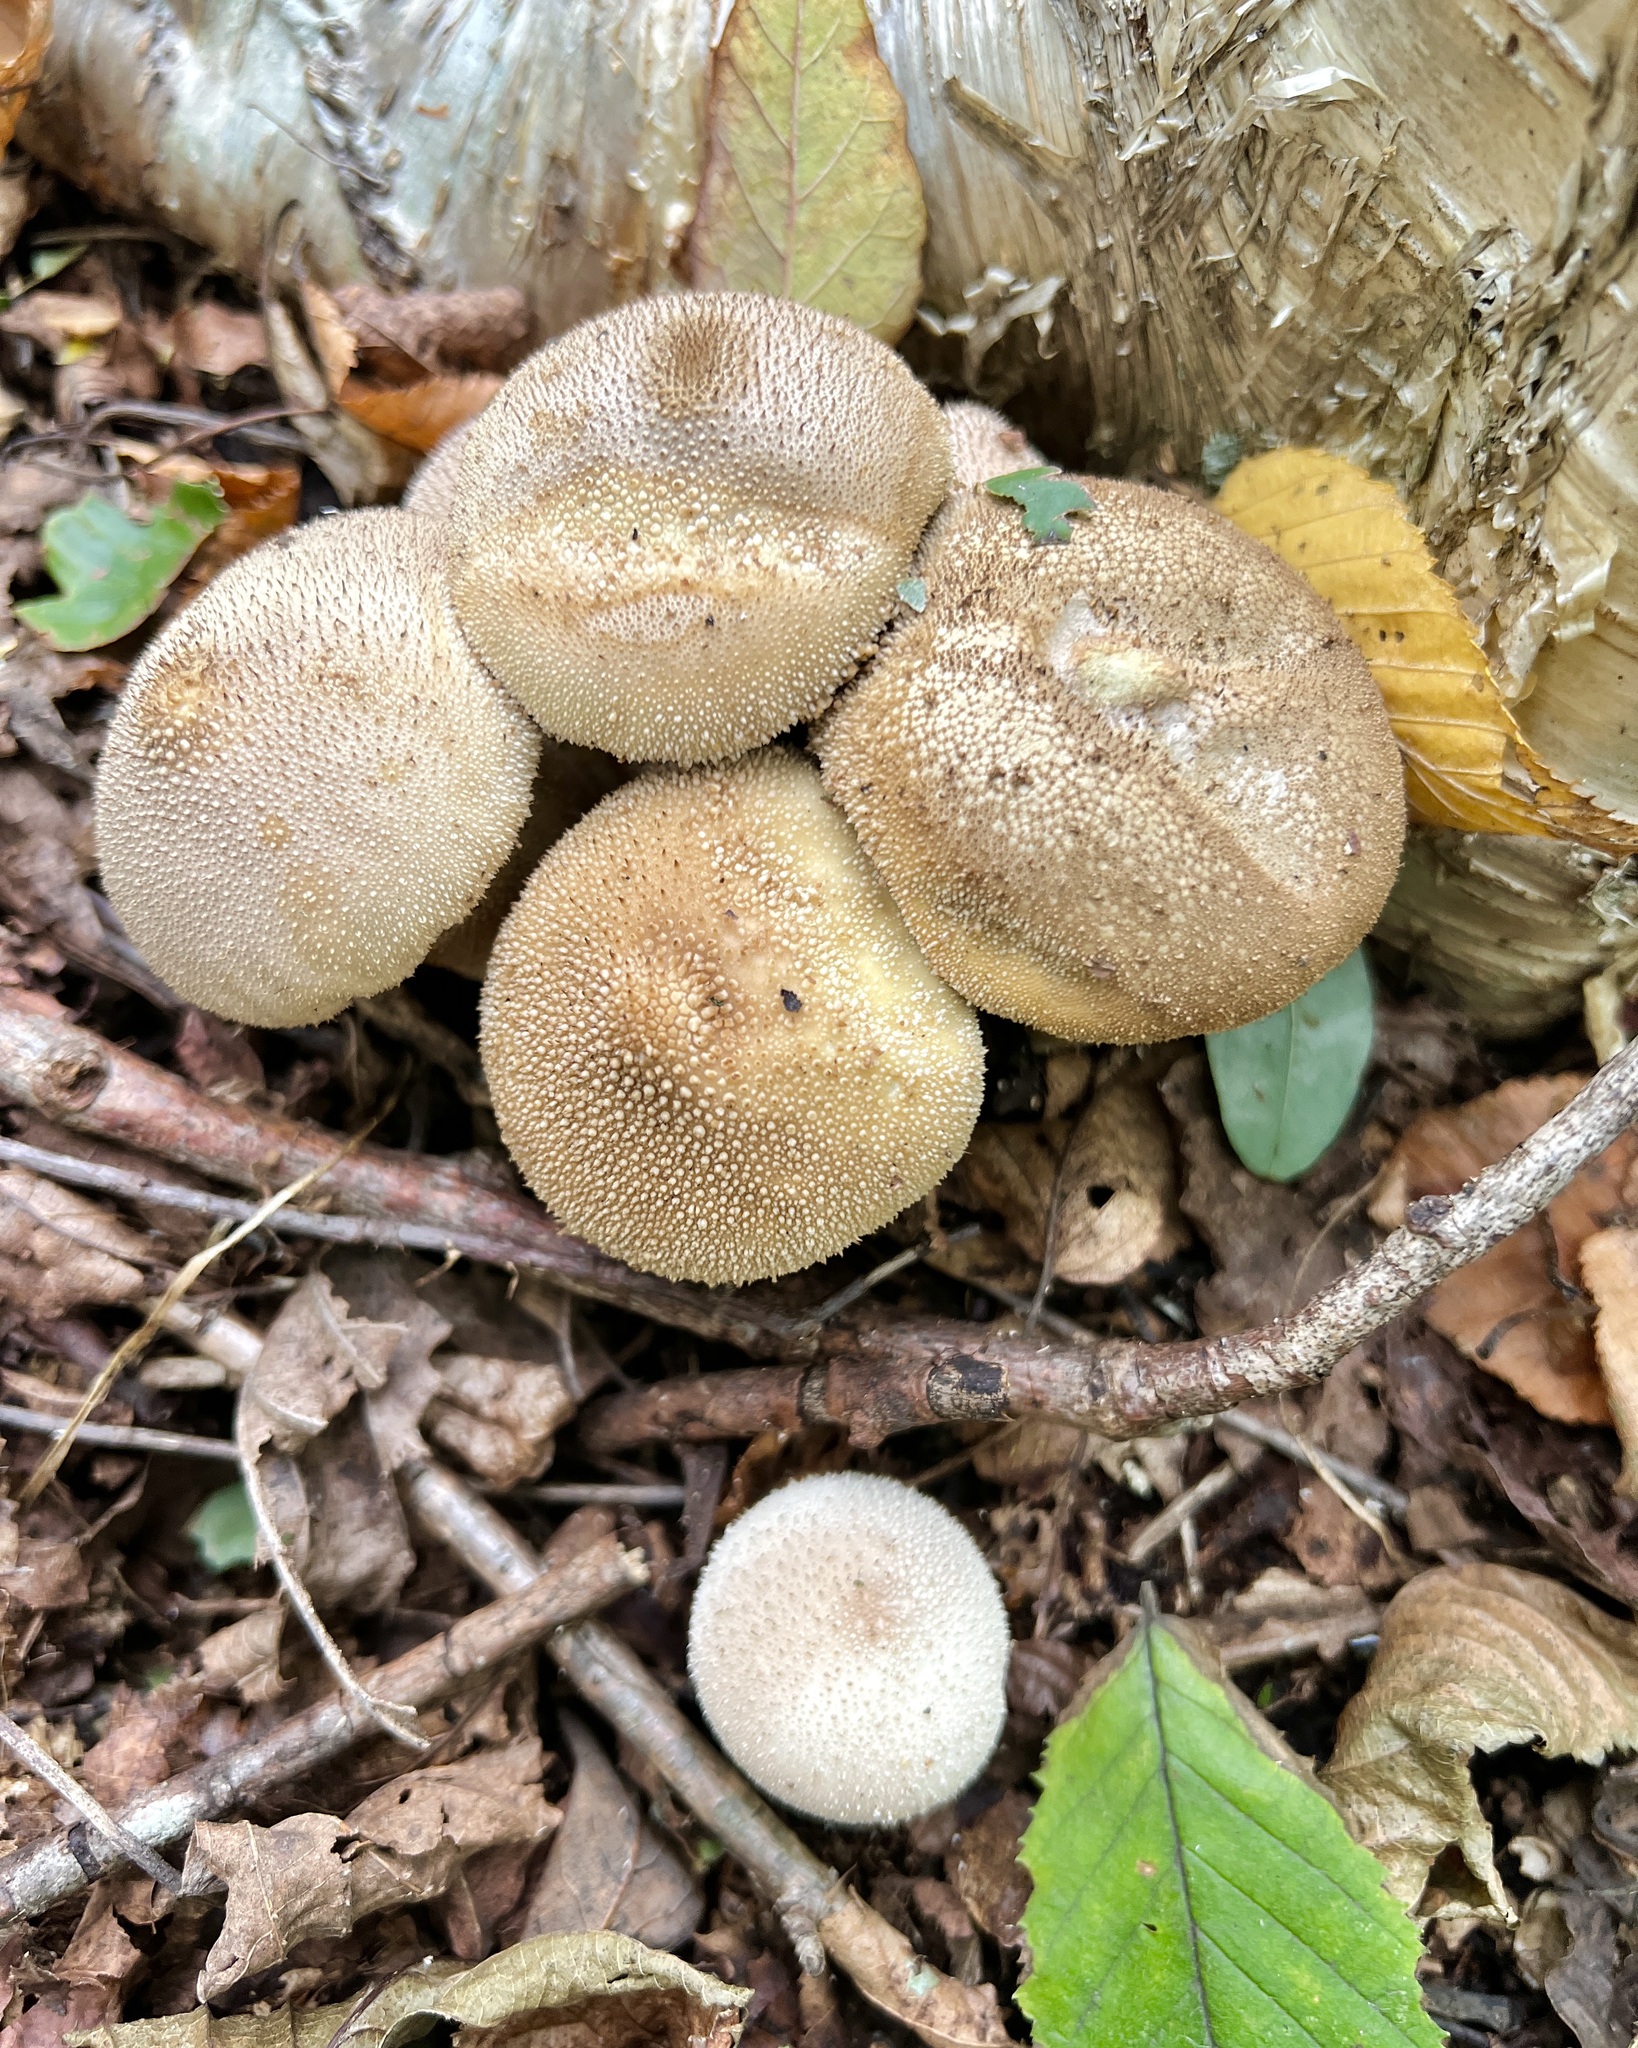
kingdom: Fungi
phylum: Basidiomycota
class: Agaricomycetes
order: Agaricales
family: Lycoperdaceae
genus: Lycoperdon
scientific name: Lycoperdon perlatum
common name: Common puffball
